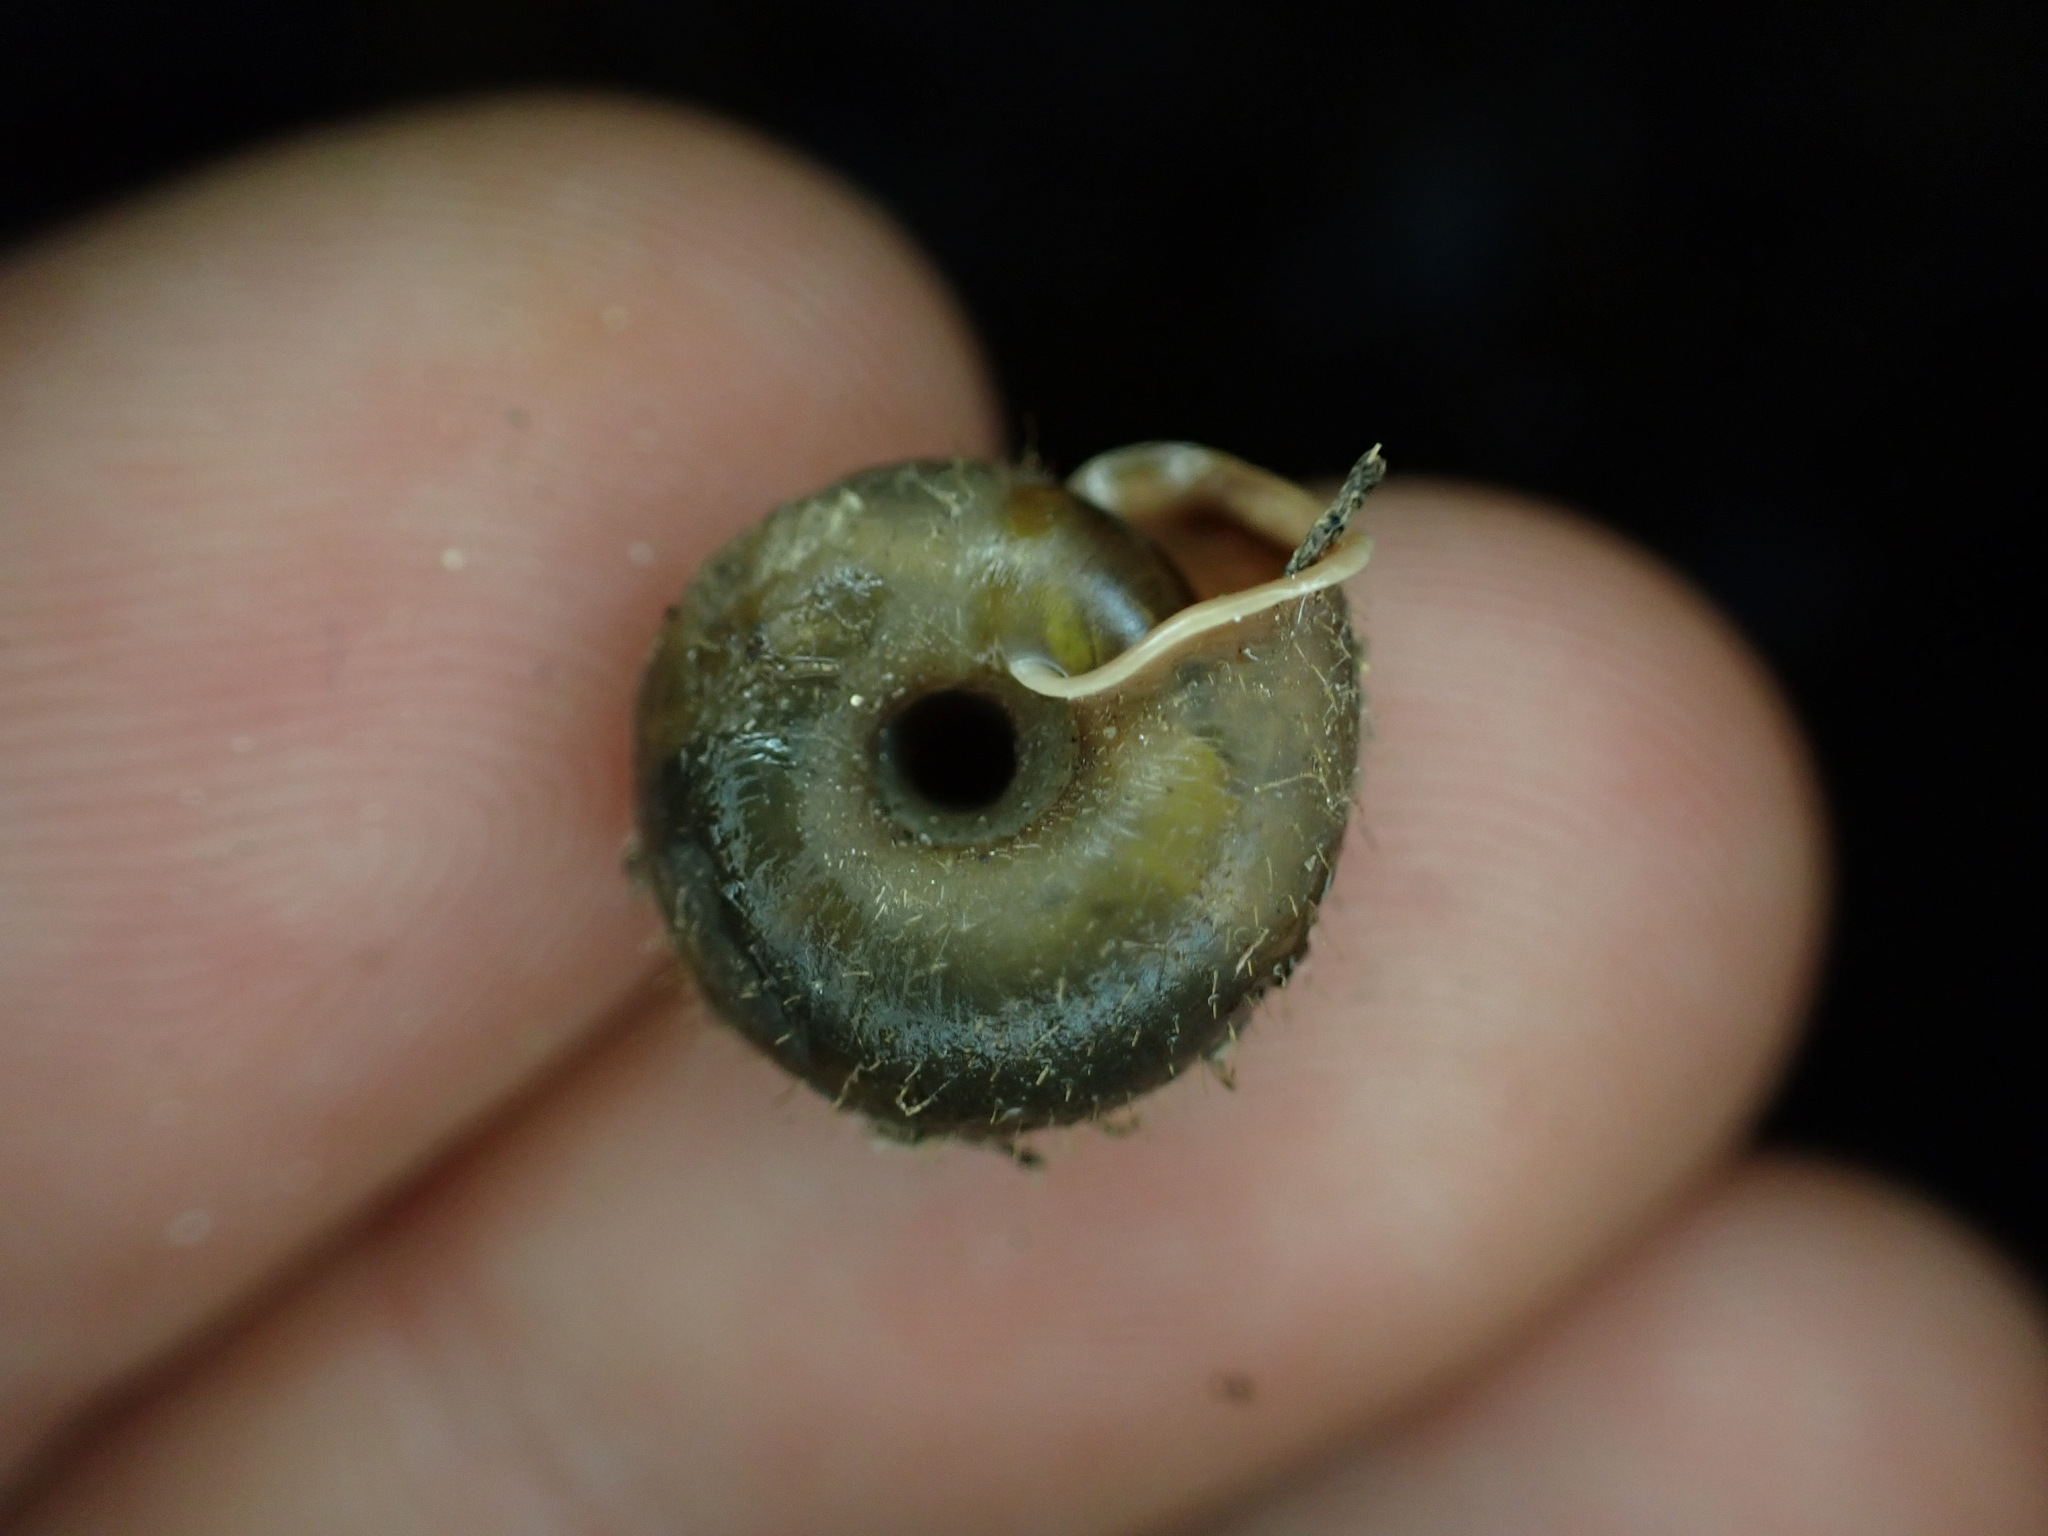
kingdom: Animalia
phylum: Mollusca
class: Gastropoda
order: Stylommatophora
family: Helicodontidae
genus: Helicodonta
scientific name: Helicodonta obvoluta
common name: Cheese snail
